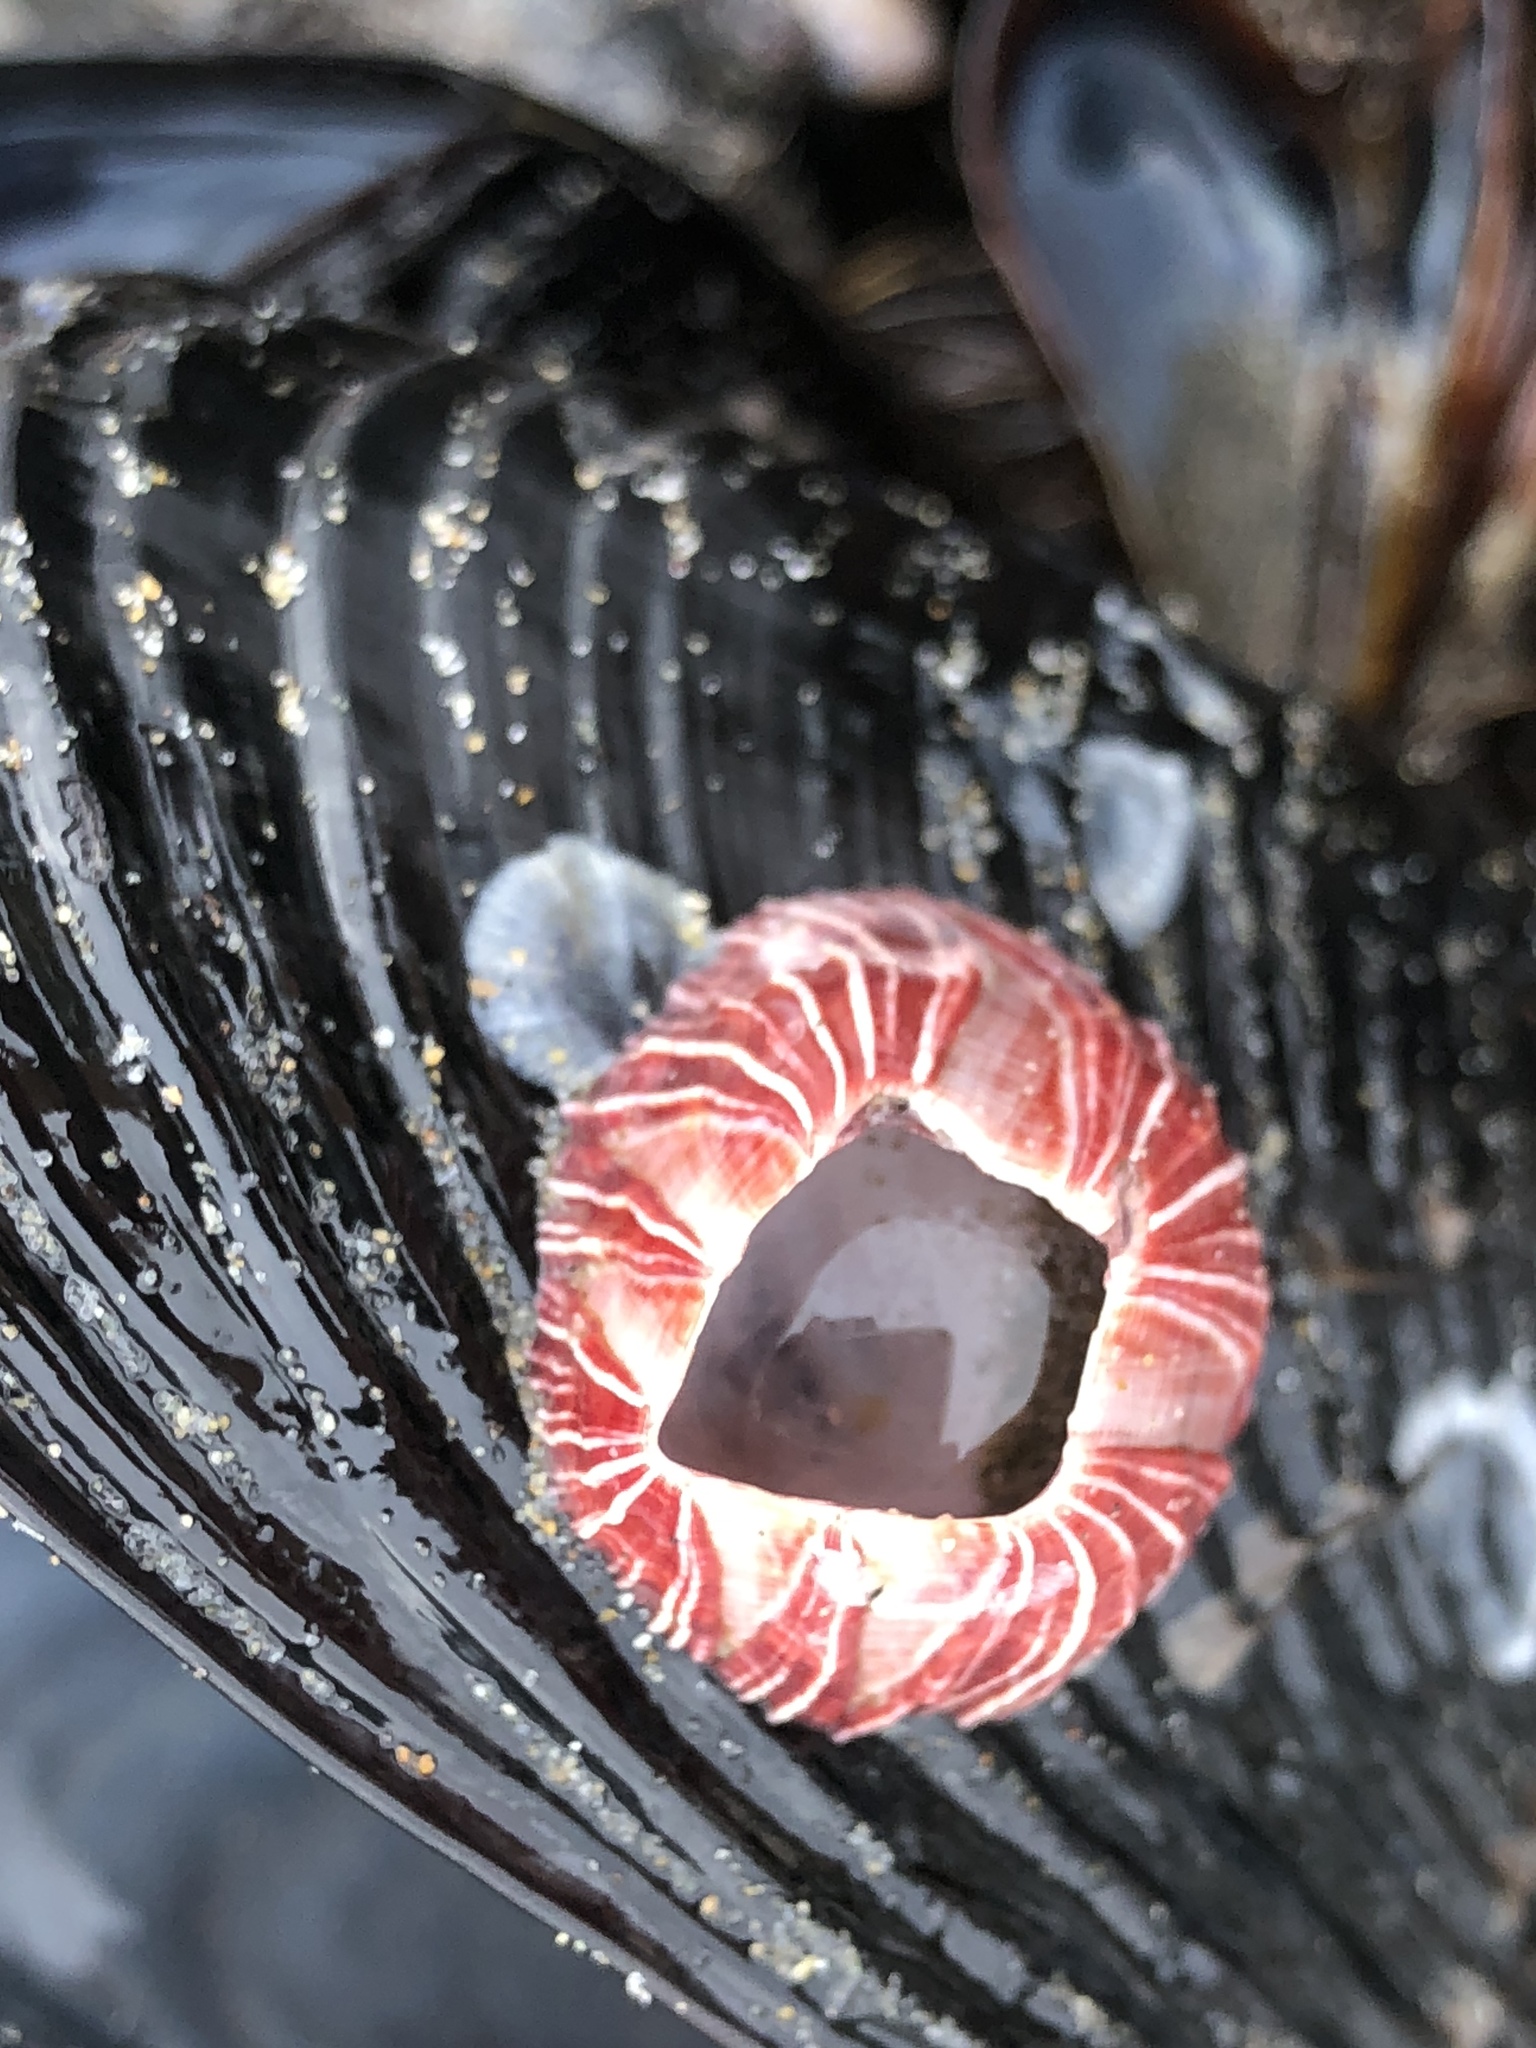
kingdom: Animalia
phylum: Arthropoda
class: Maxillopoda
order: Sessilia
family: Balanidae
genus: Megabalanus
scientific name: Megabalanus californicus
